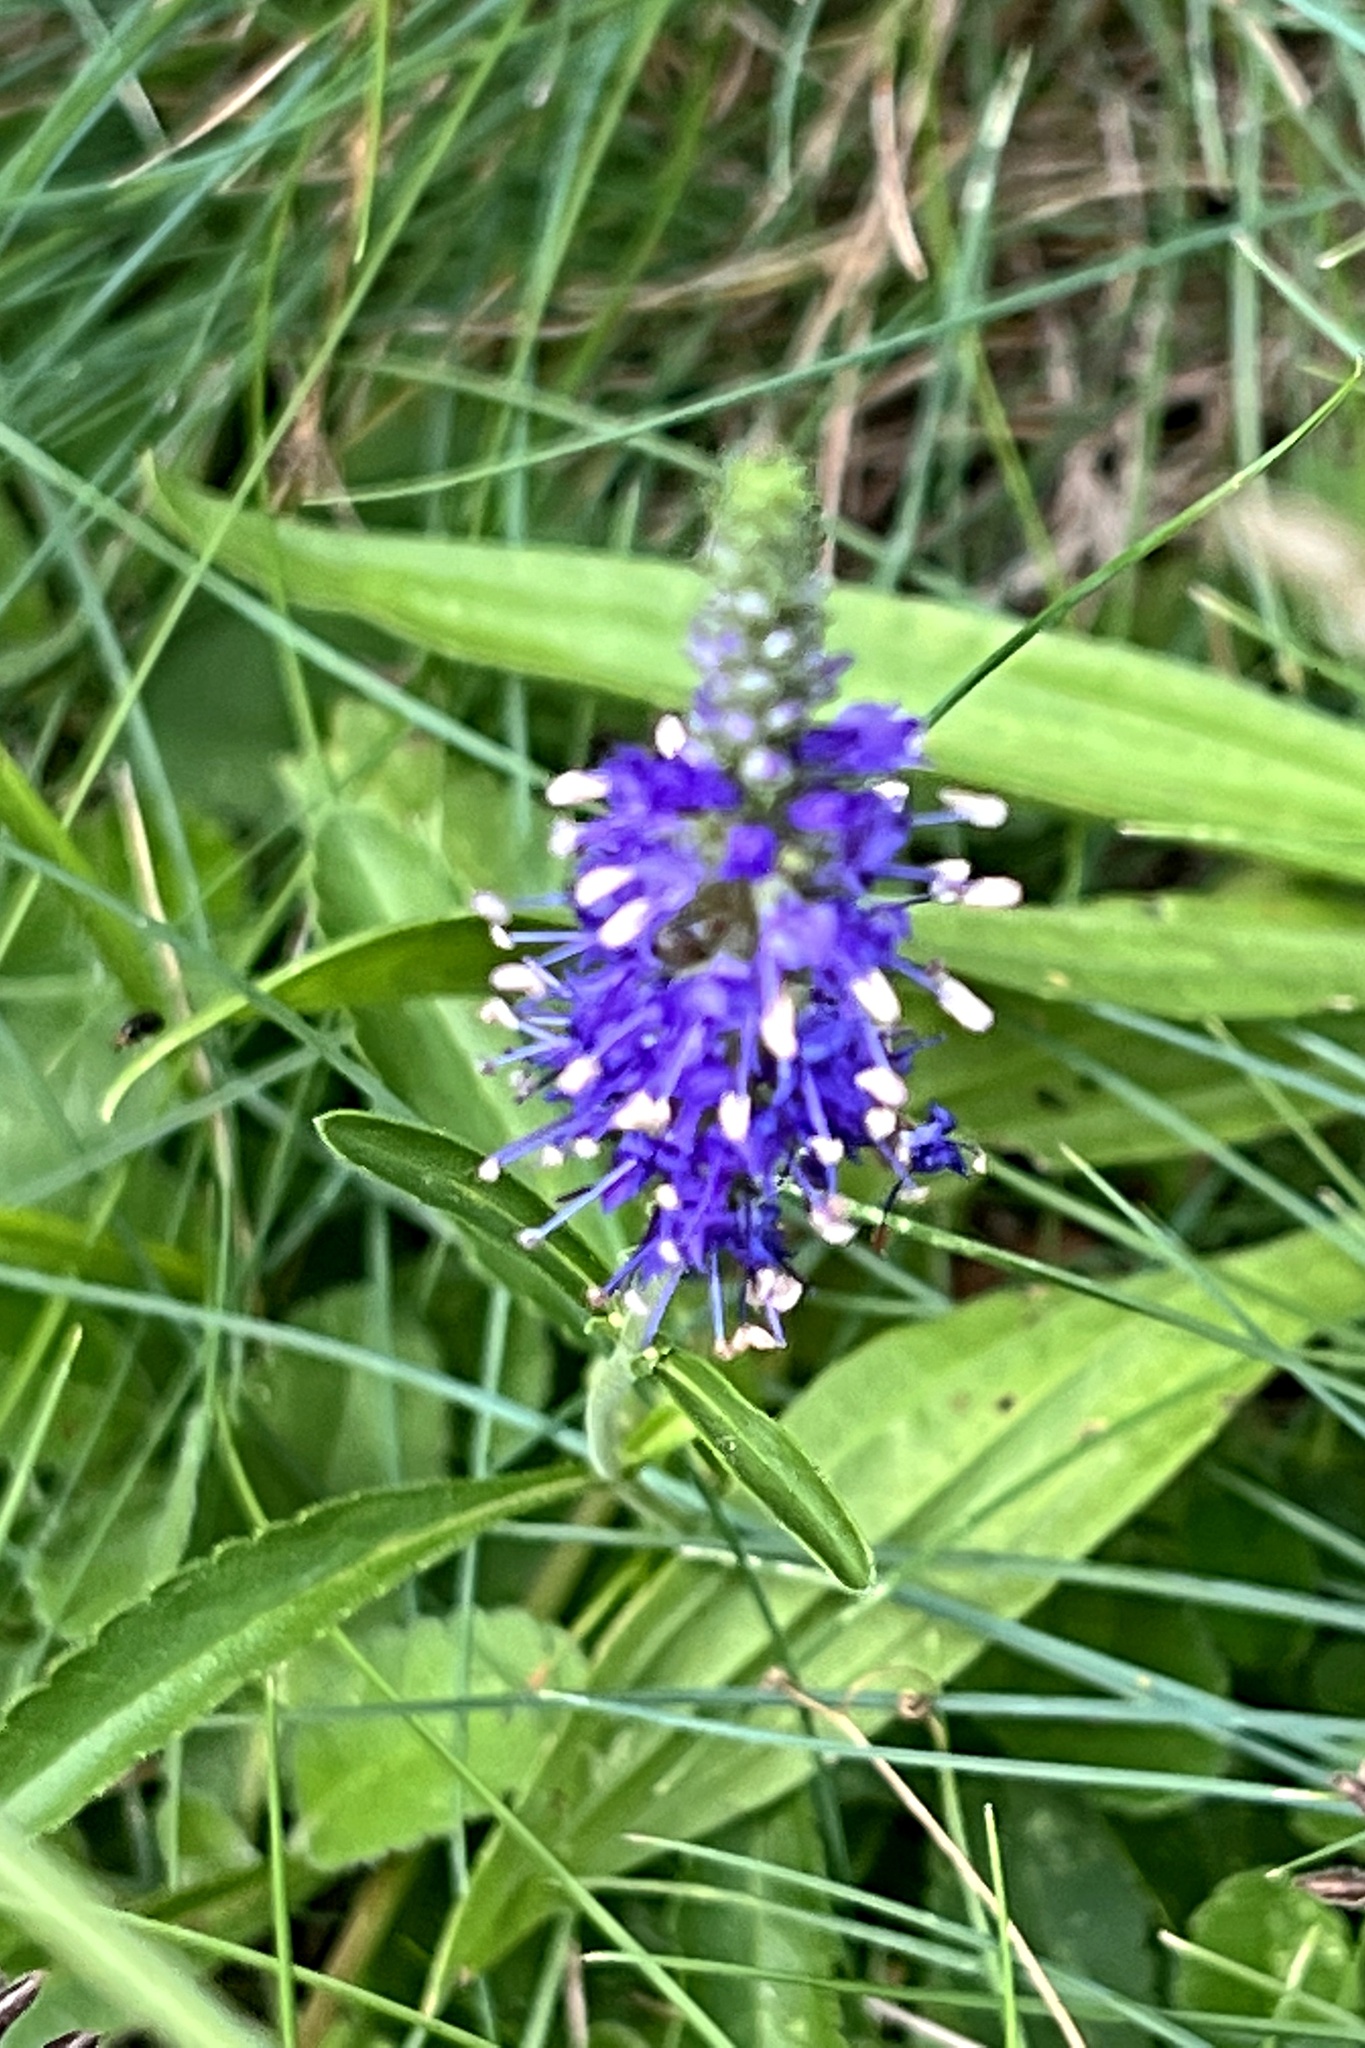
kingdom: Plantae
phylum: Tracheophyta
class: Magnoliopsida
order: Lamiales
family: Plantaginaceae
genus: Veronica
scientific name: Veronica spicata
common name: Spiked speedwell
